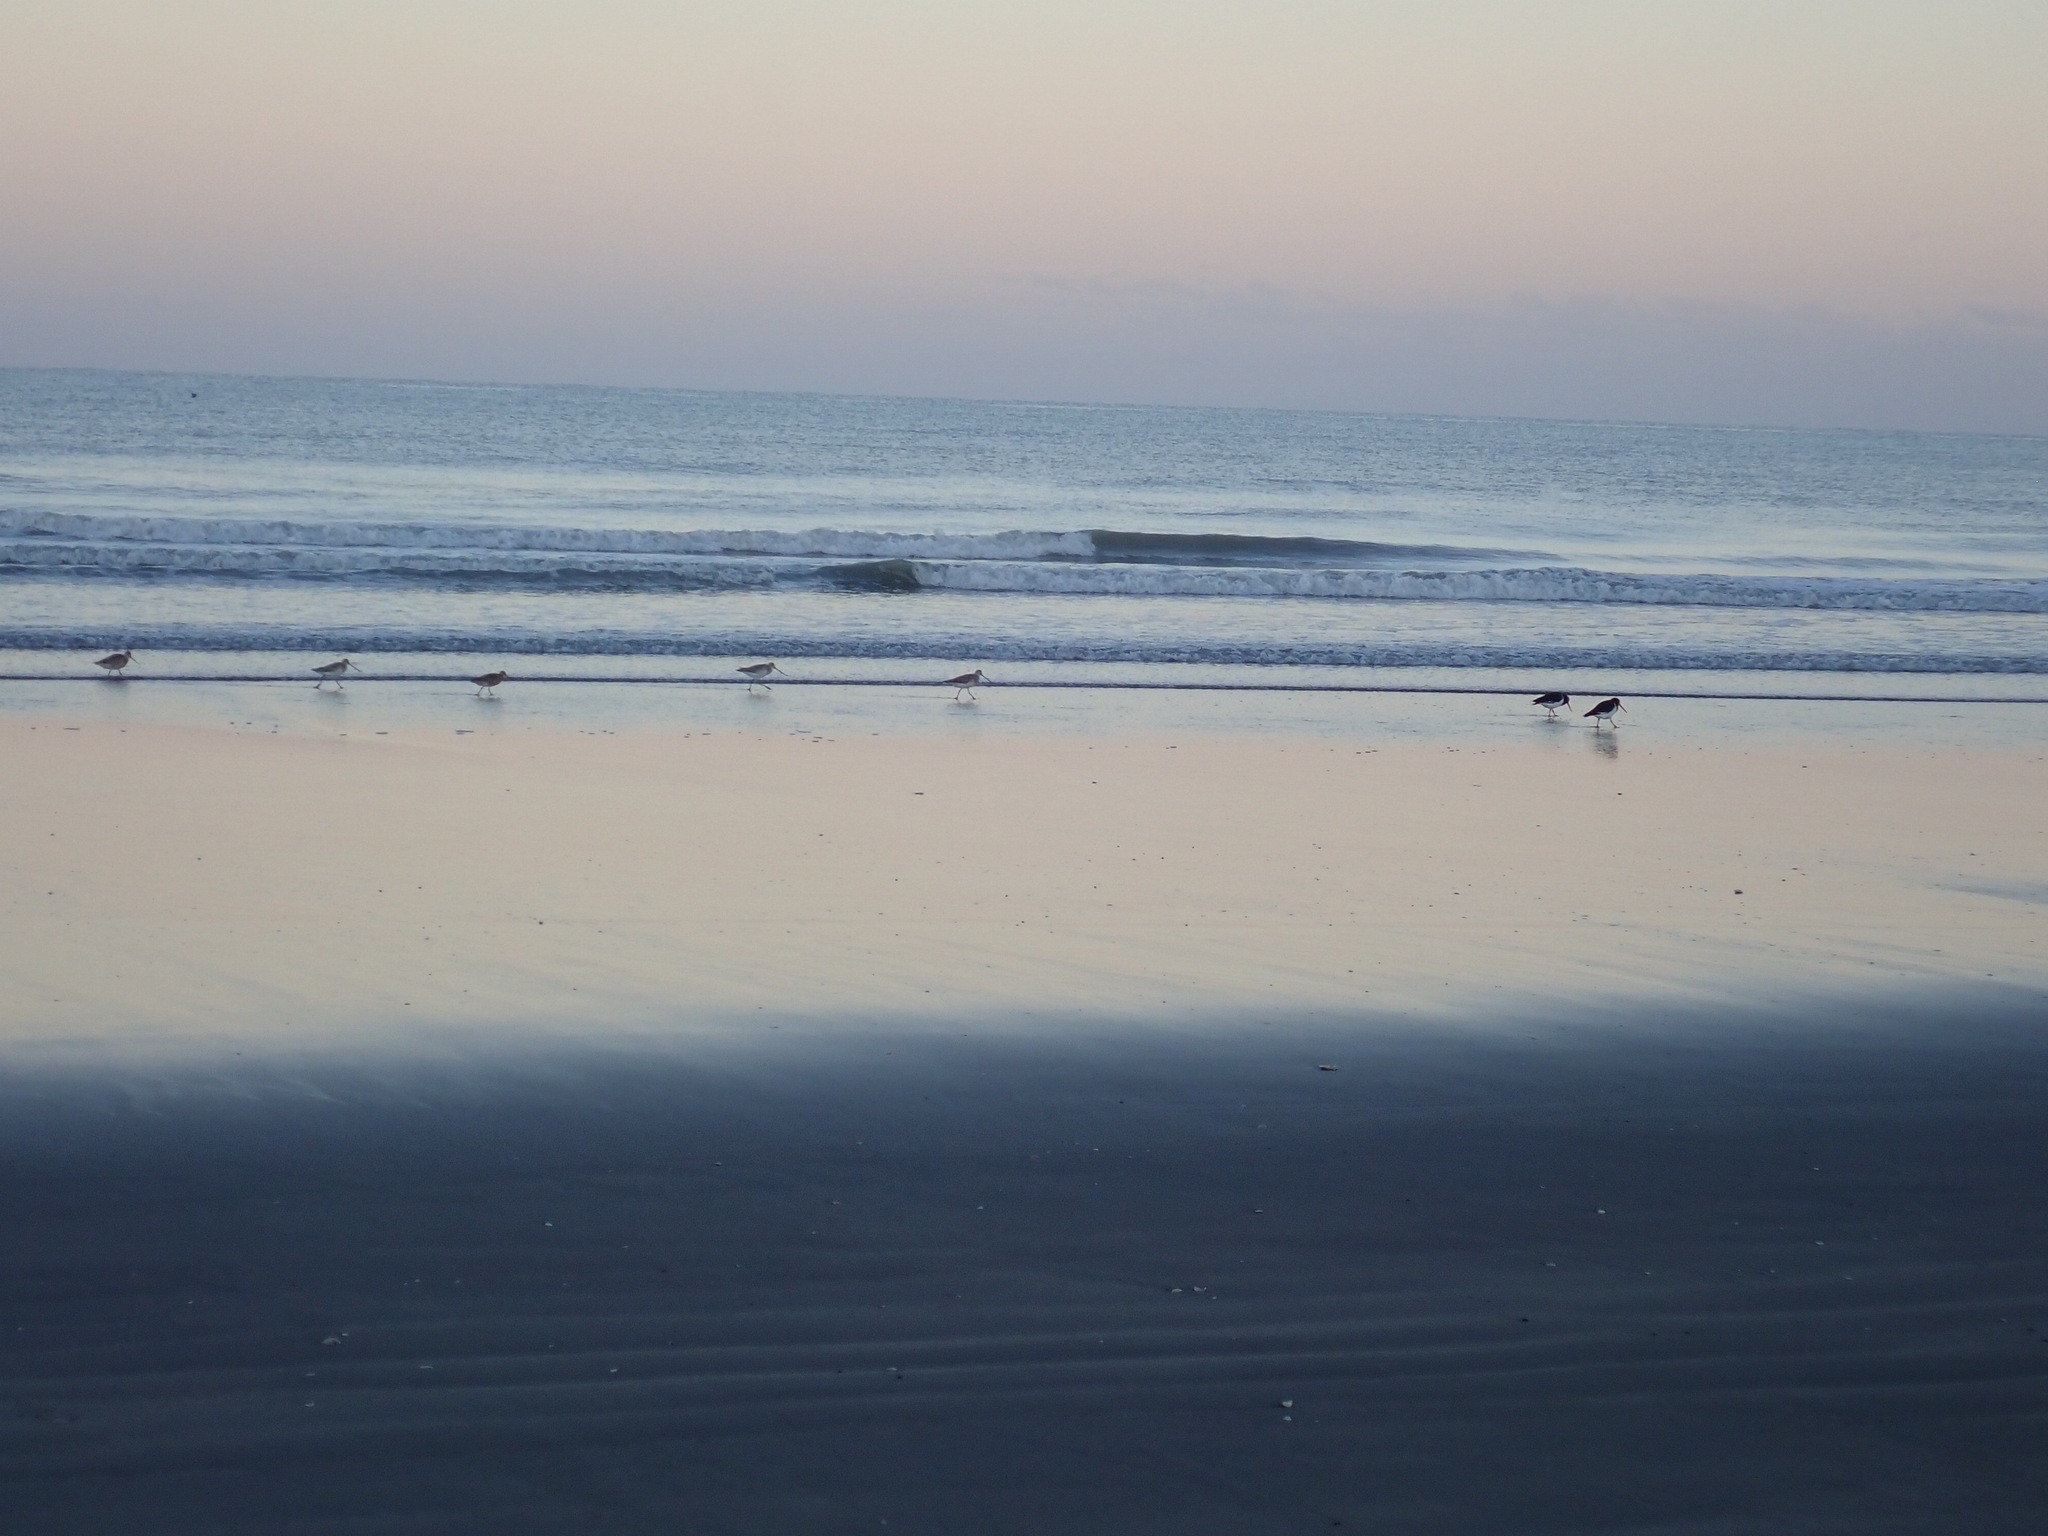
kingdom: Animalia
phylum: Chordata
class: Aves
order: Charadriiformes
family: Haematopodidae
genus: Haematopus
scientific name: Haematopus finschi
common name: South island oystercatcher
